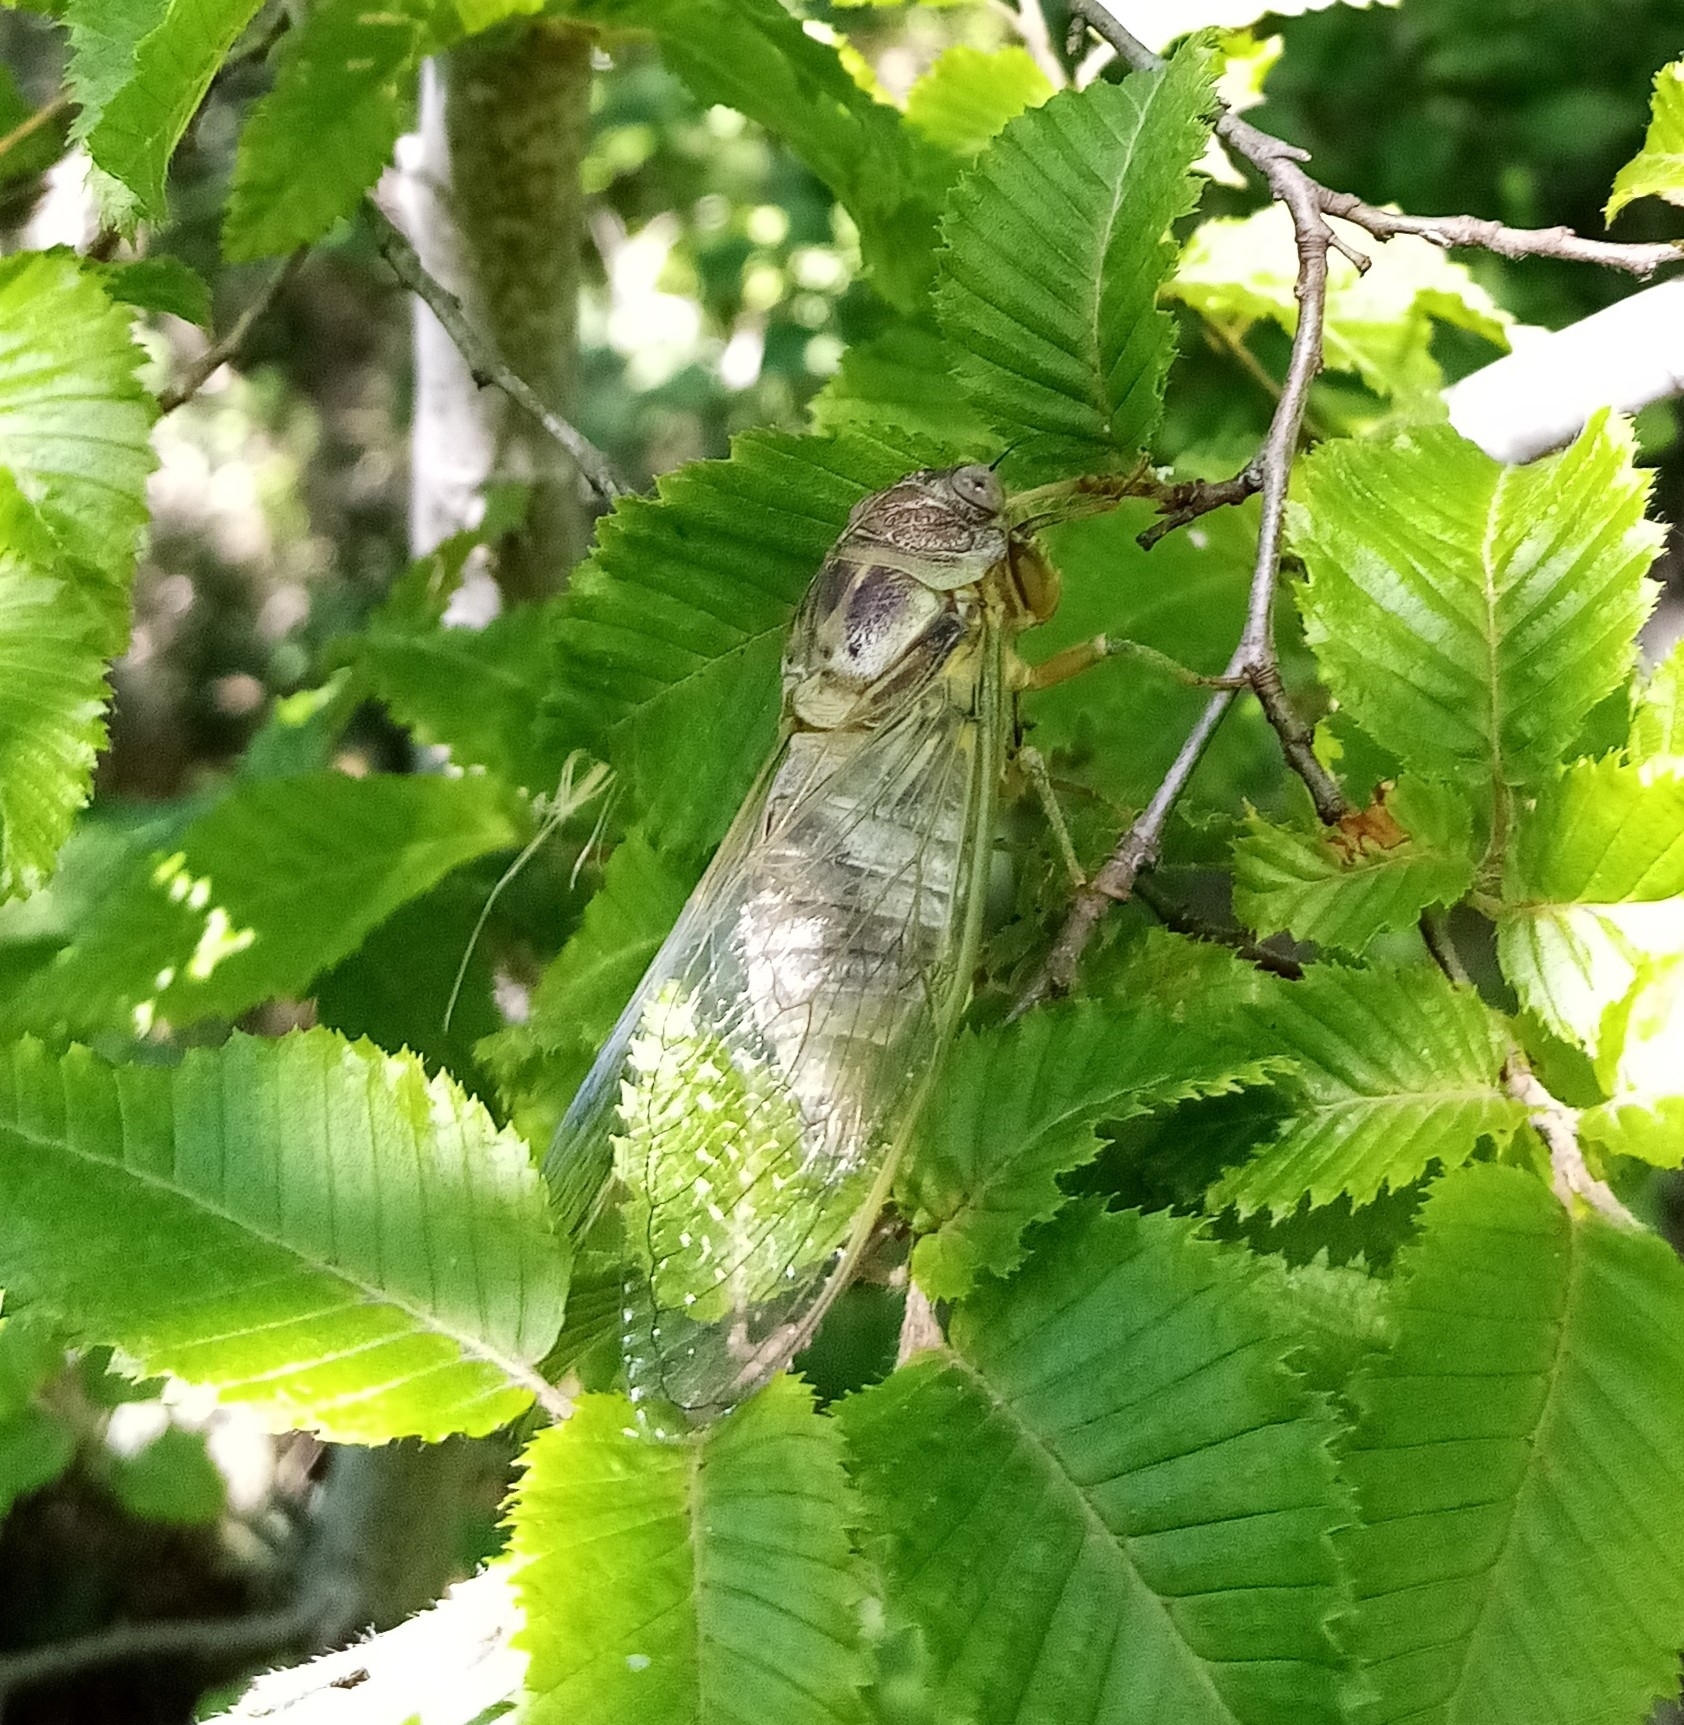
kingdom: Animalia
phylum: Arthropoda
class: Insecta
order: Hemiptera
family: Cicadidae
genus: Lyristes
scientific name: Lyristes plebejus
